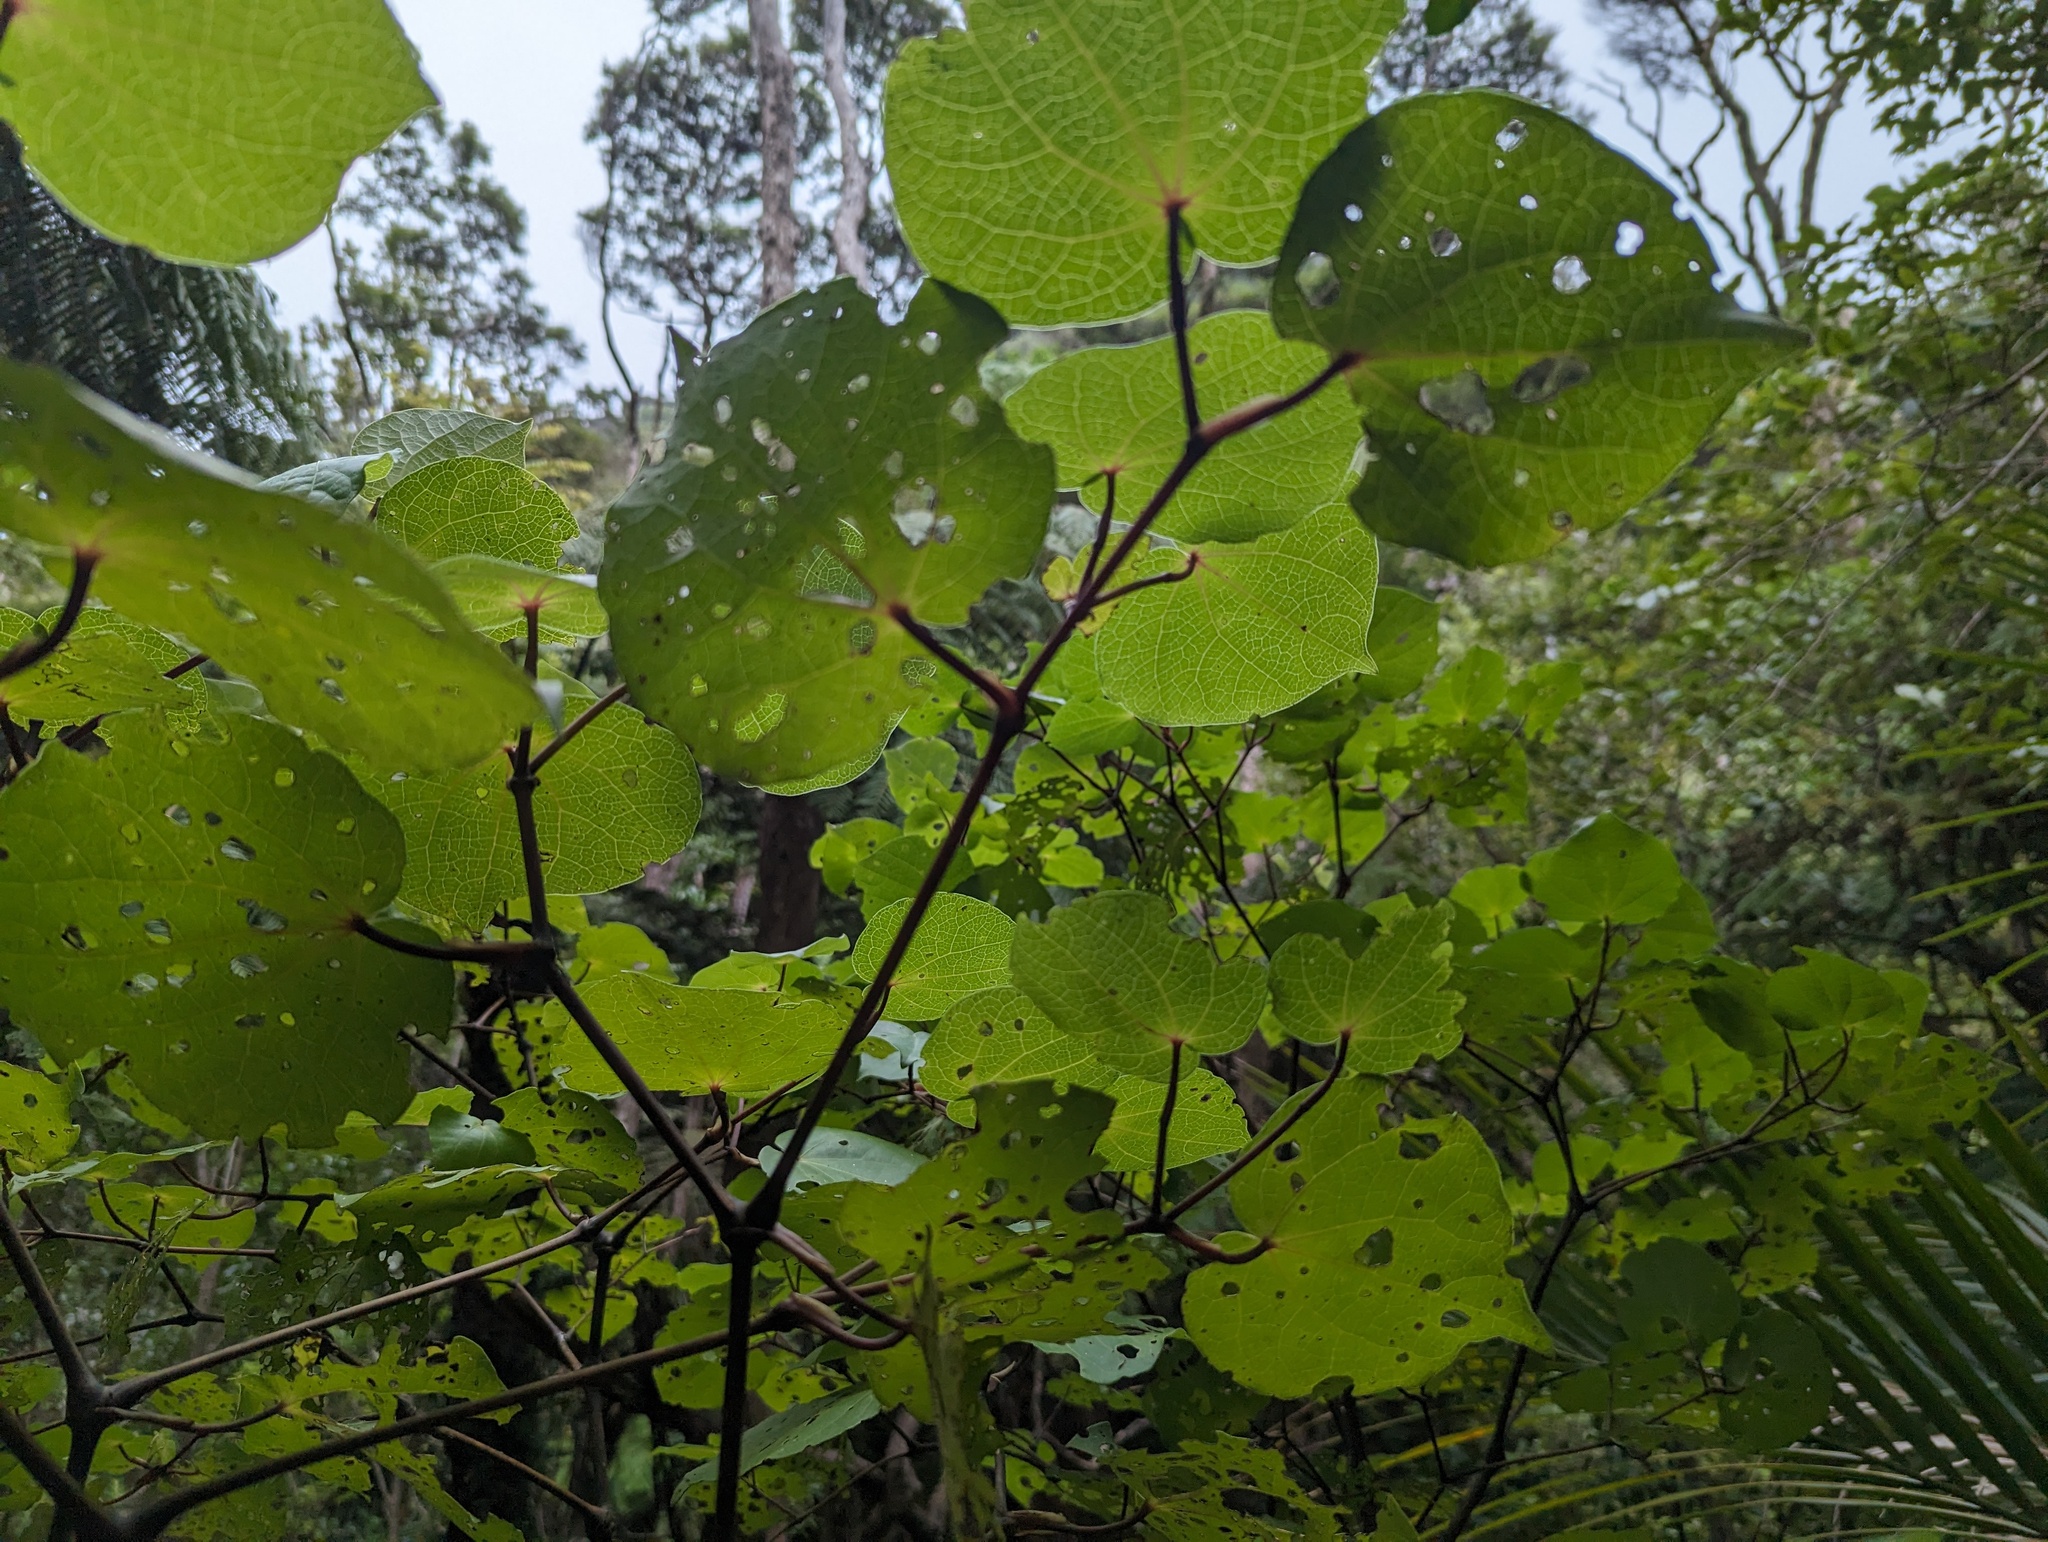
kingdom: Plantae
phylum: Tracheophyta
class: Magnoliopsida
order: Piperales
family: Piperaceae
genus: Macropiper
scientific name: Macropiper excelsum
